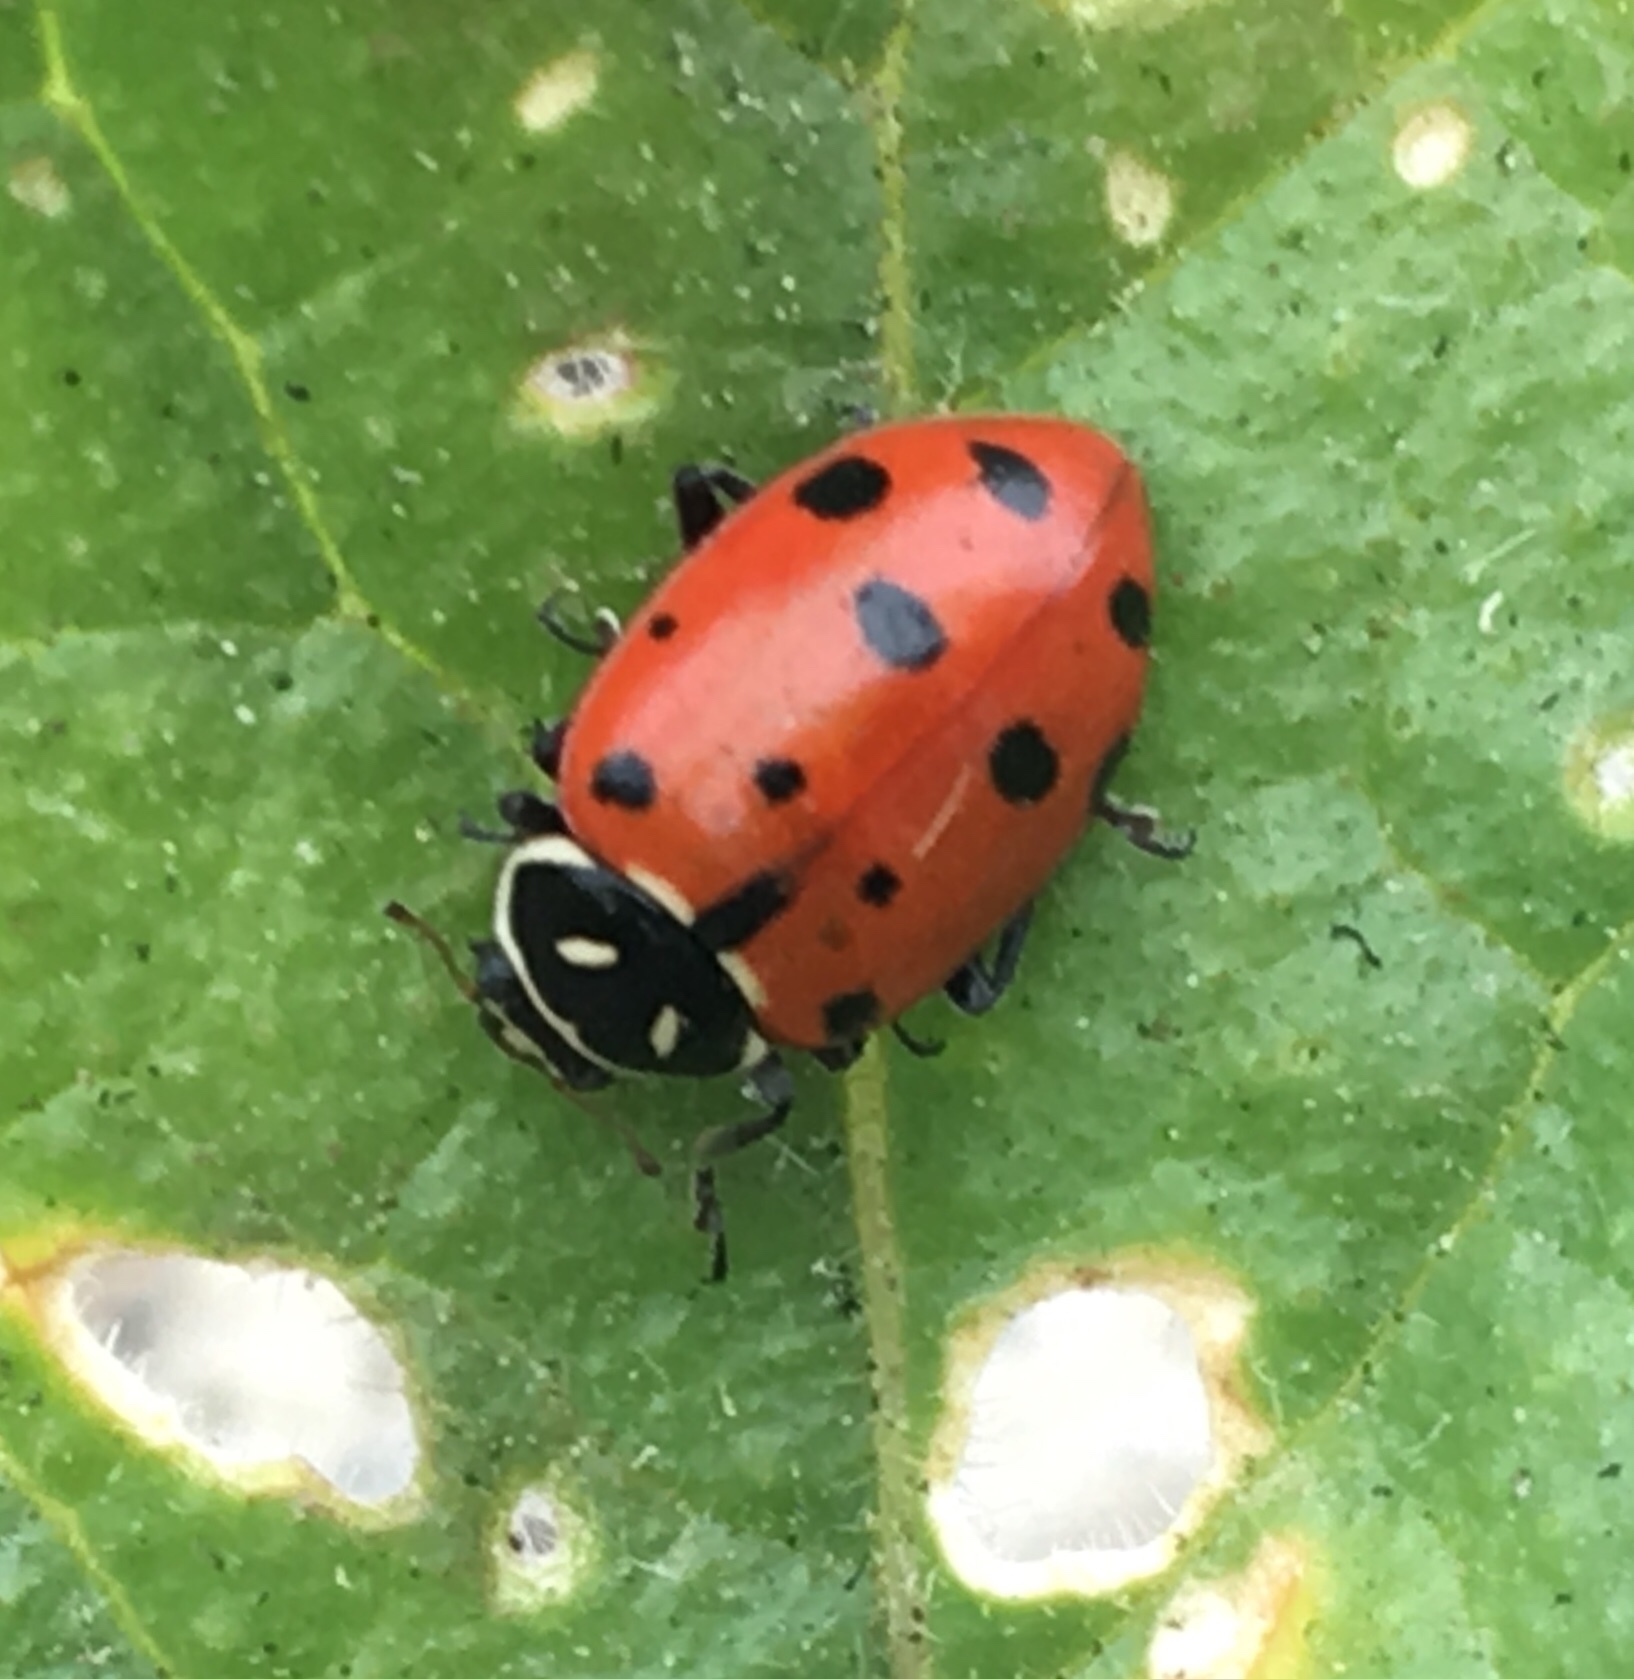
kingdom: Animalia
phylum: Arthropoda
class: Insecta
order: Coleoptera
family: Coccinellidae
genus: Hippodamia
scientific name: Hippodamia convergens
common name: Convergent lady beetle
